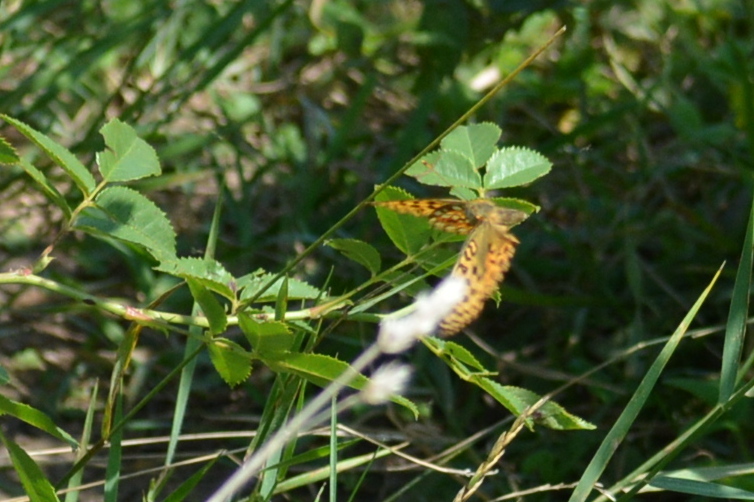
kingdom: Animalia
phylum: Arthropoda
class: Insecta
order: Lepidoptera
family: Nymphalidae
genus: Fabriciana
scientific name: Fabriciana adippe
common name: High brown fritillary
